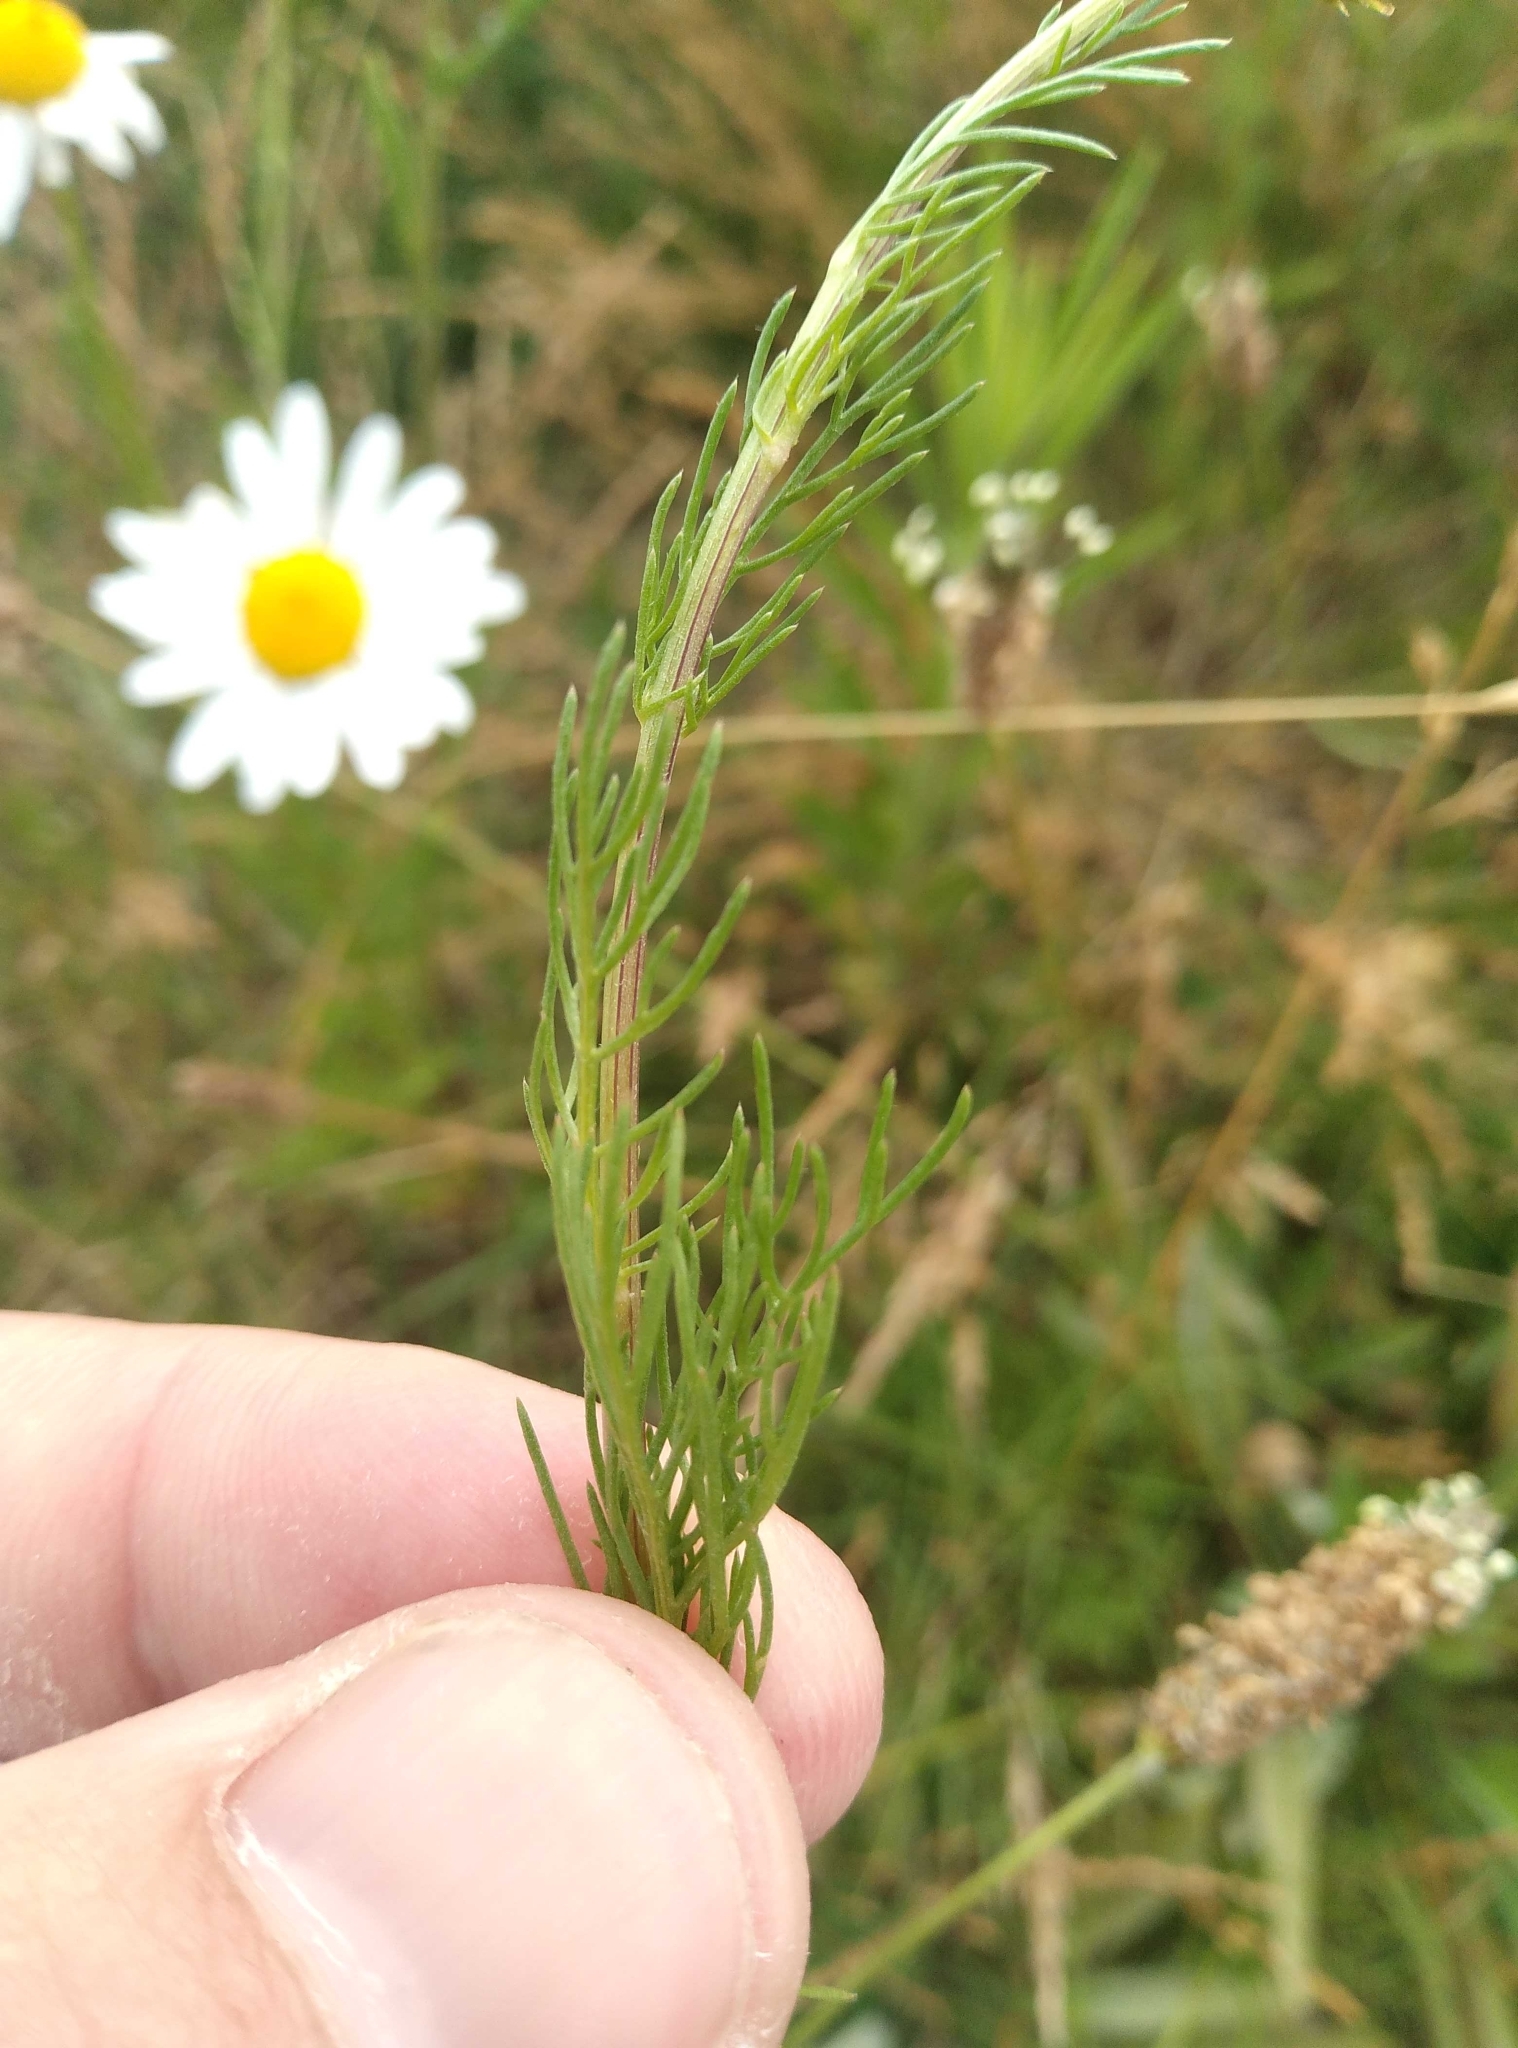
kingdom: Plantae
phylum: Tracheophyta
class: Magnoliopsida
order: Asterales
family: Asteraceae
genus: Tripleurospermum
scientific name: Tripleurospermum inodorum
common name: Scentless mayweed
